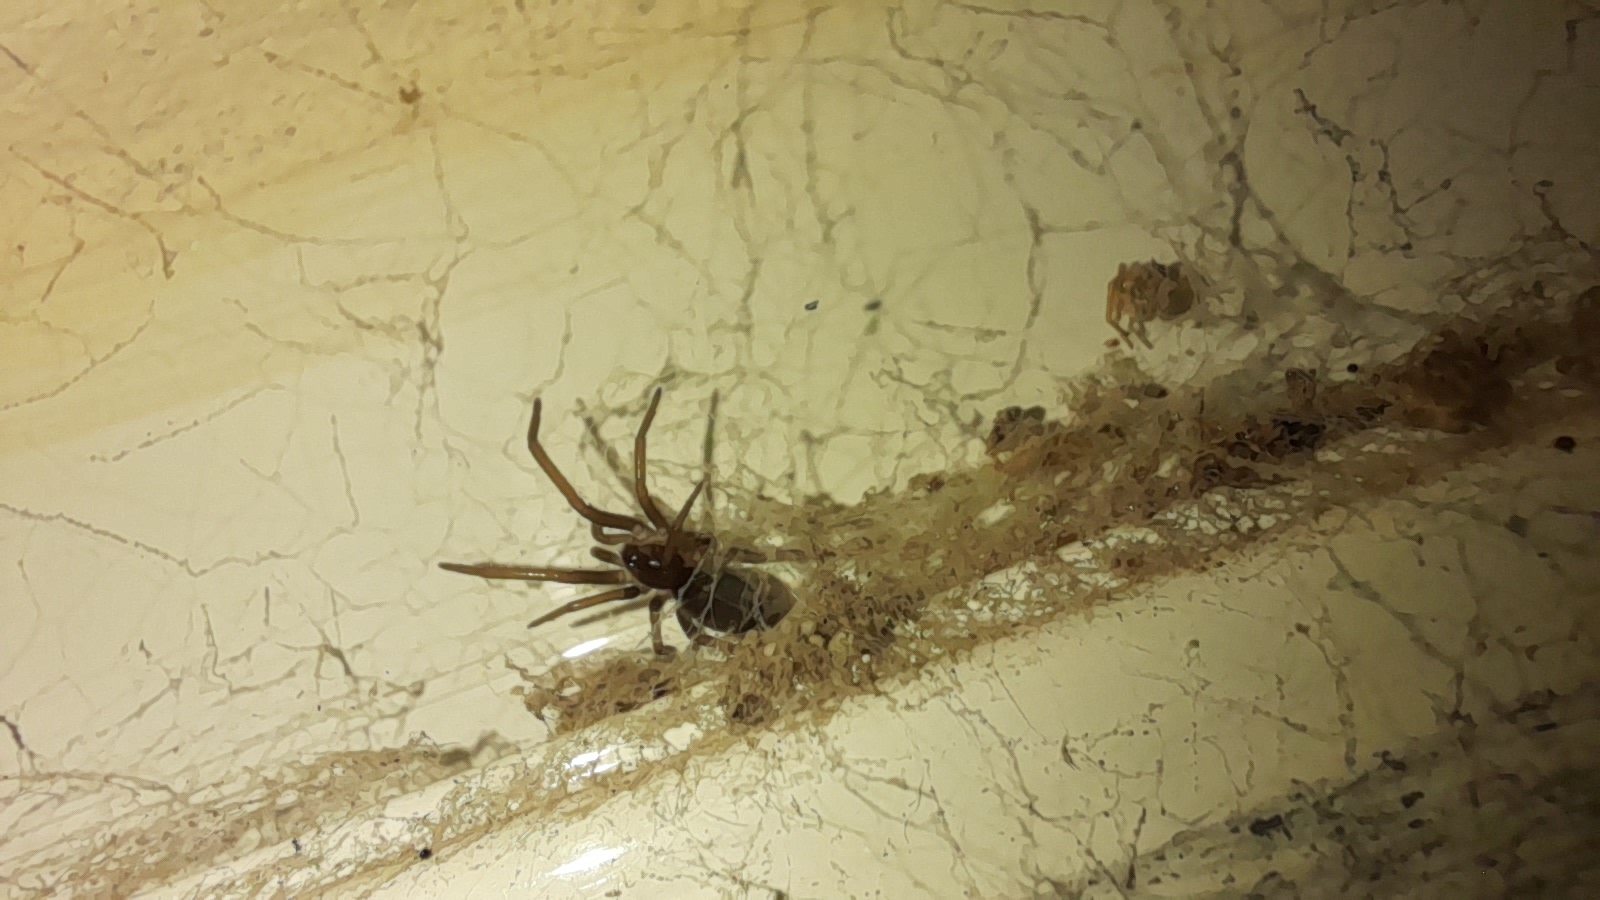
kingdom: Animalia
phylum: Arthropoda
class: Arachnida
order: Araneae
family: Filistatidae
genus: Kukulcania
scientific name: Kukulcania hibernalis
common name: Crevice weaver
